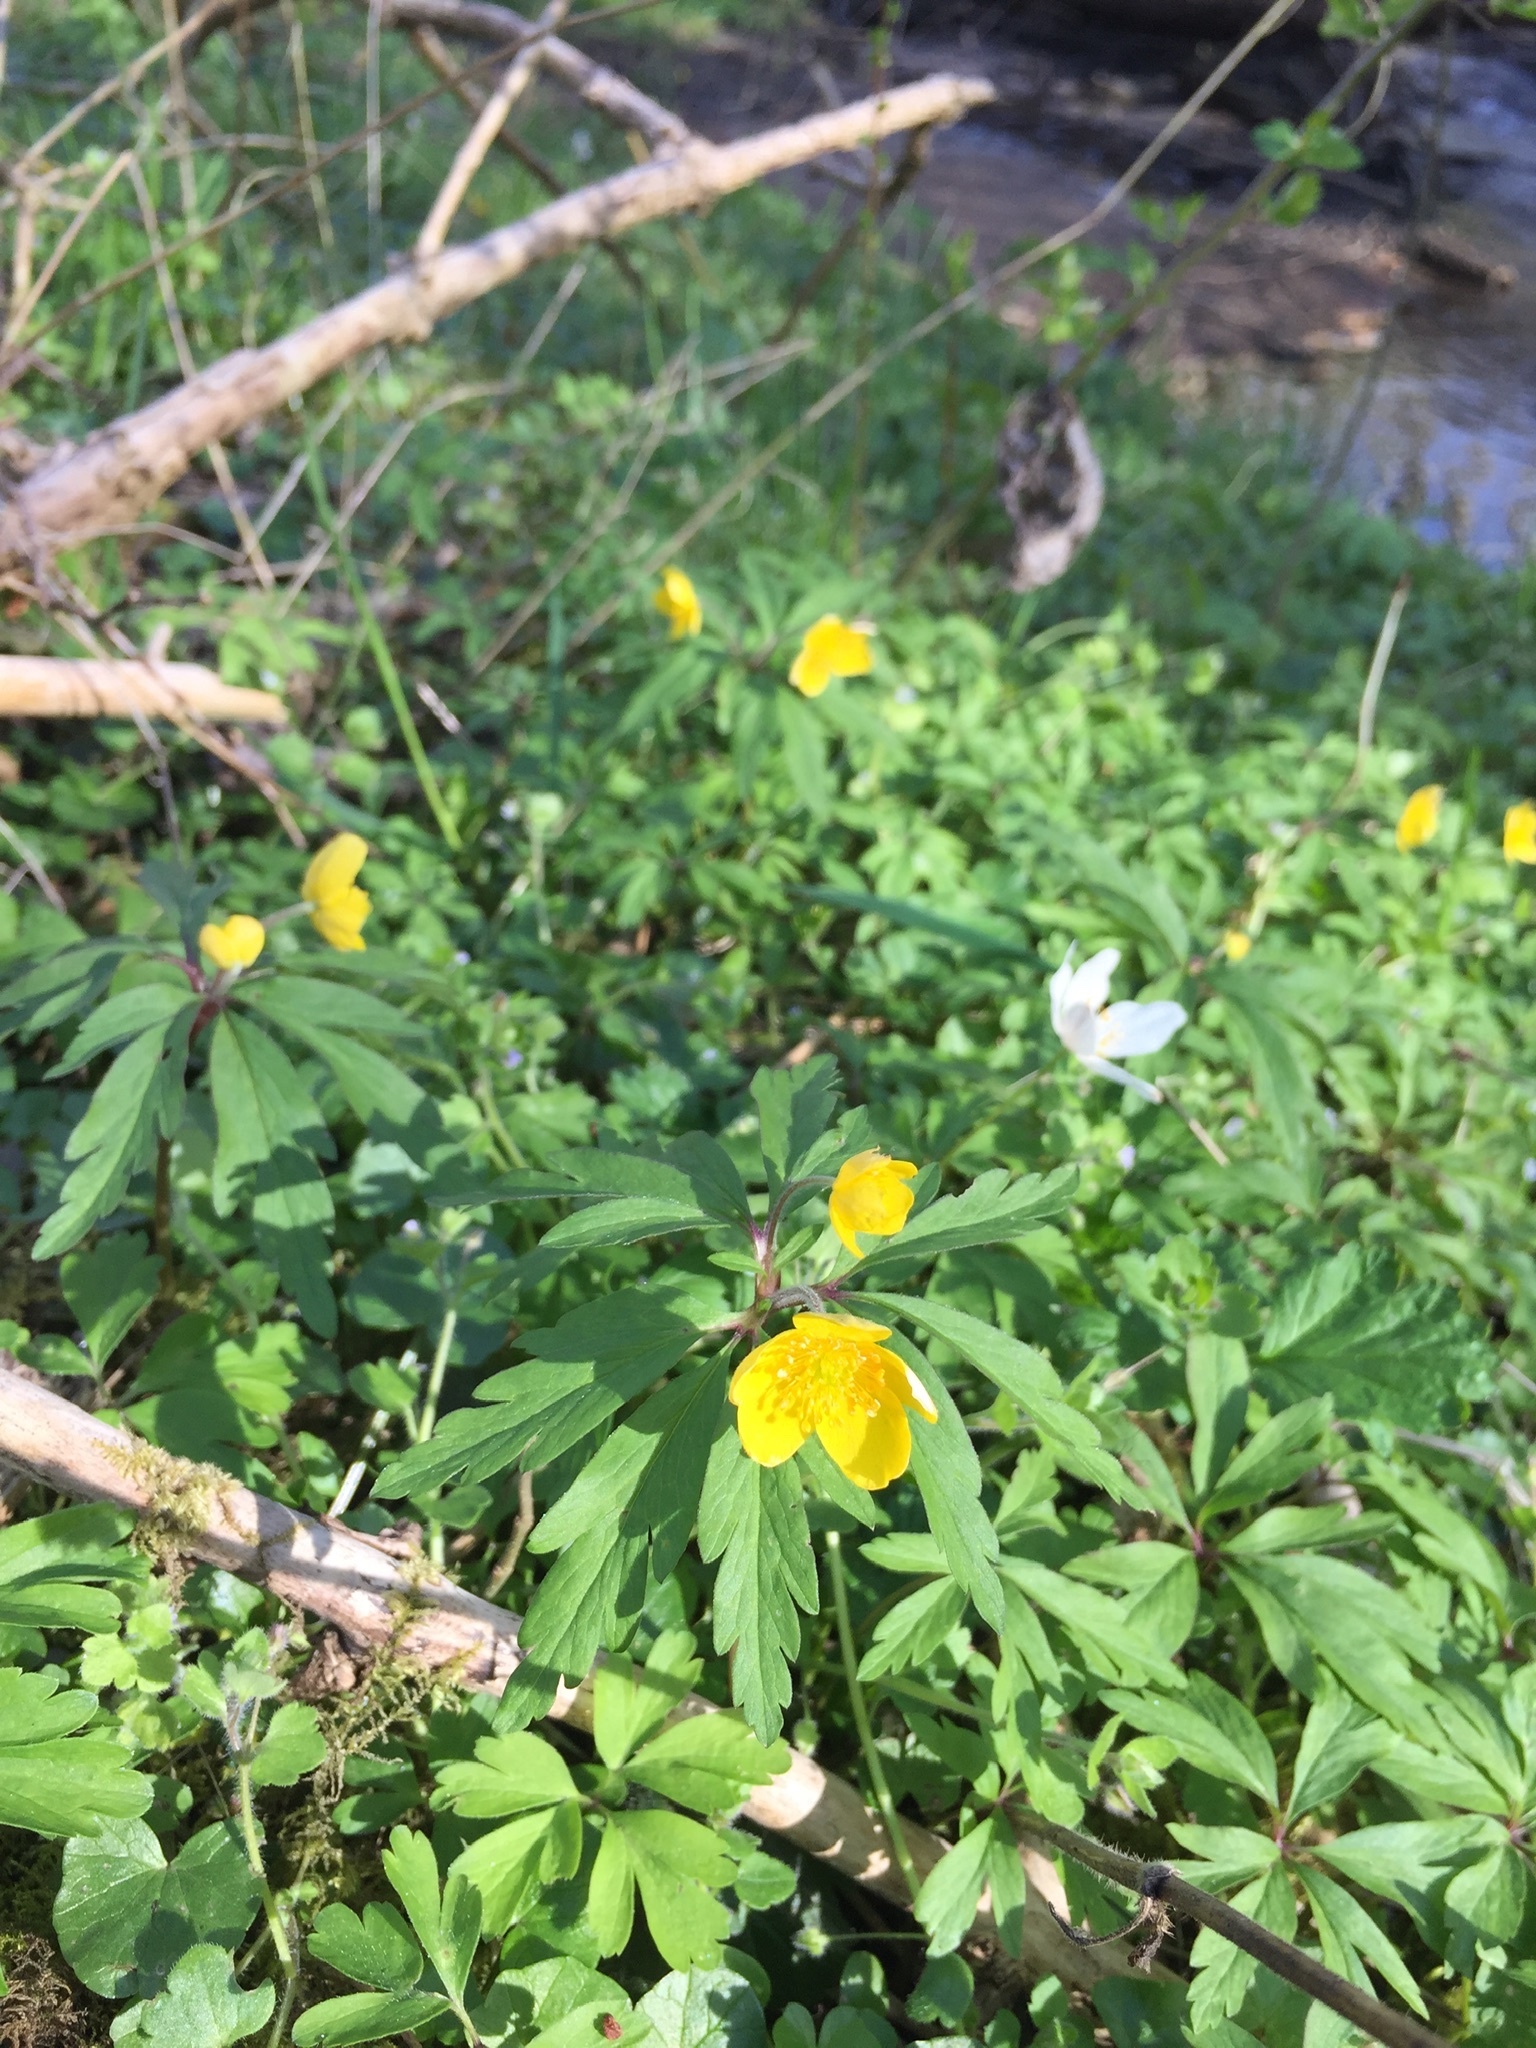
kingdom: Plantae
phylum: Tracheophyta
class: Magnoliopsida
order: Ranunculales
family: Ranunculaceae
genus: Anemone
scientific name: Anemone ranunculoides
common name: Yellow anemone
